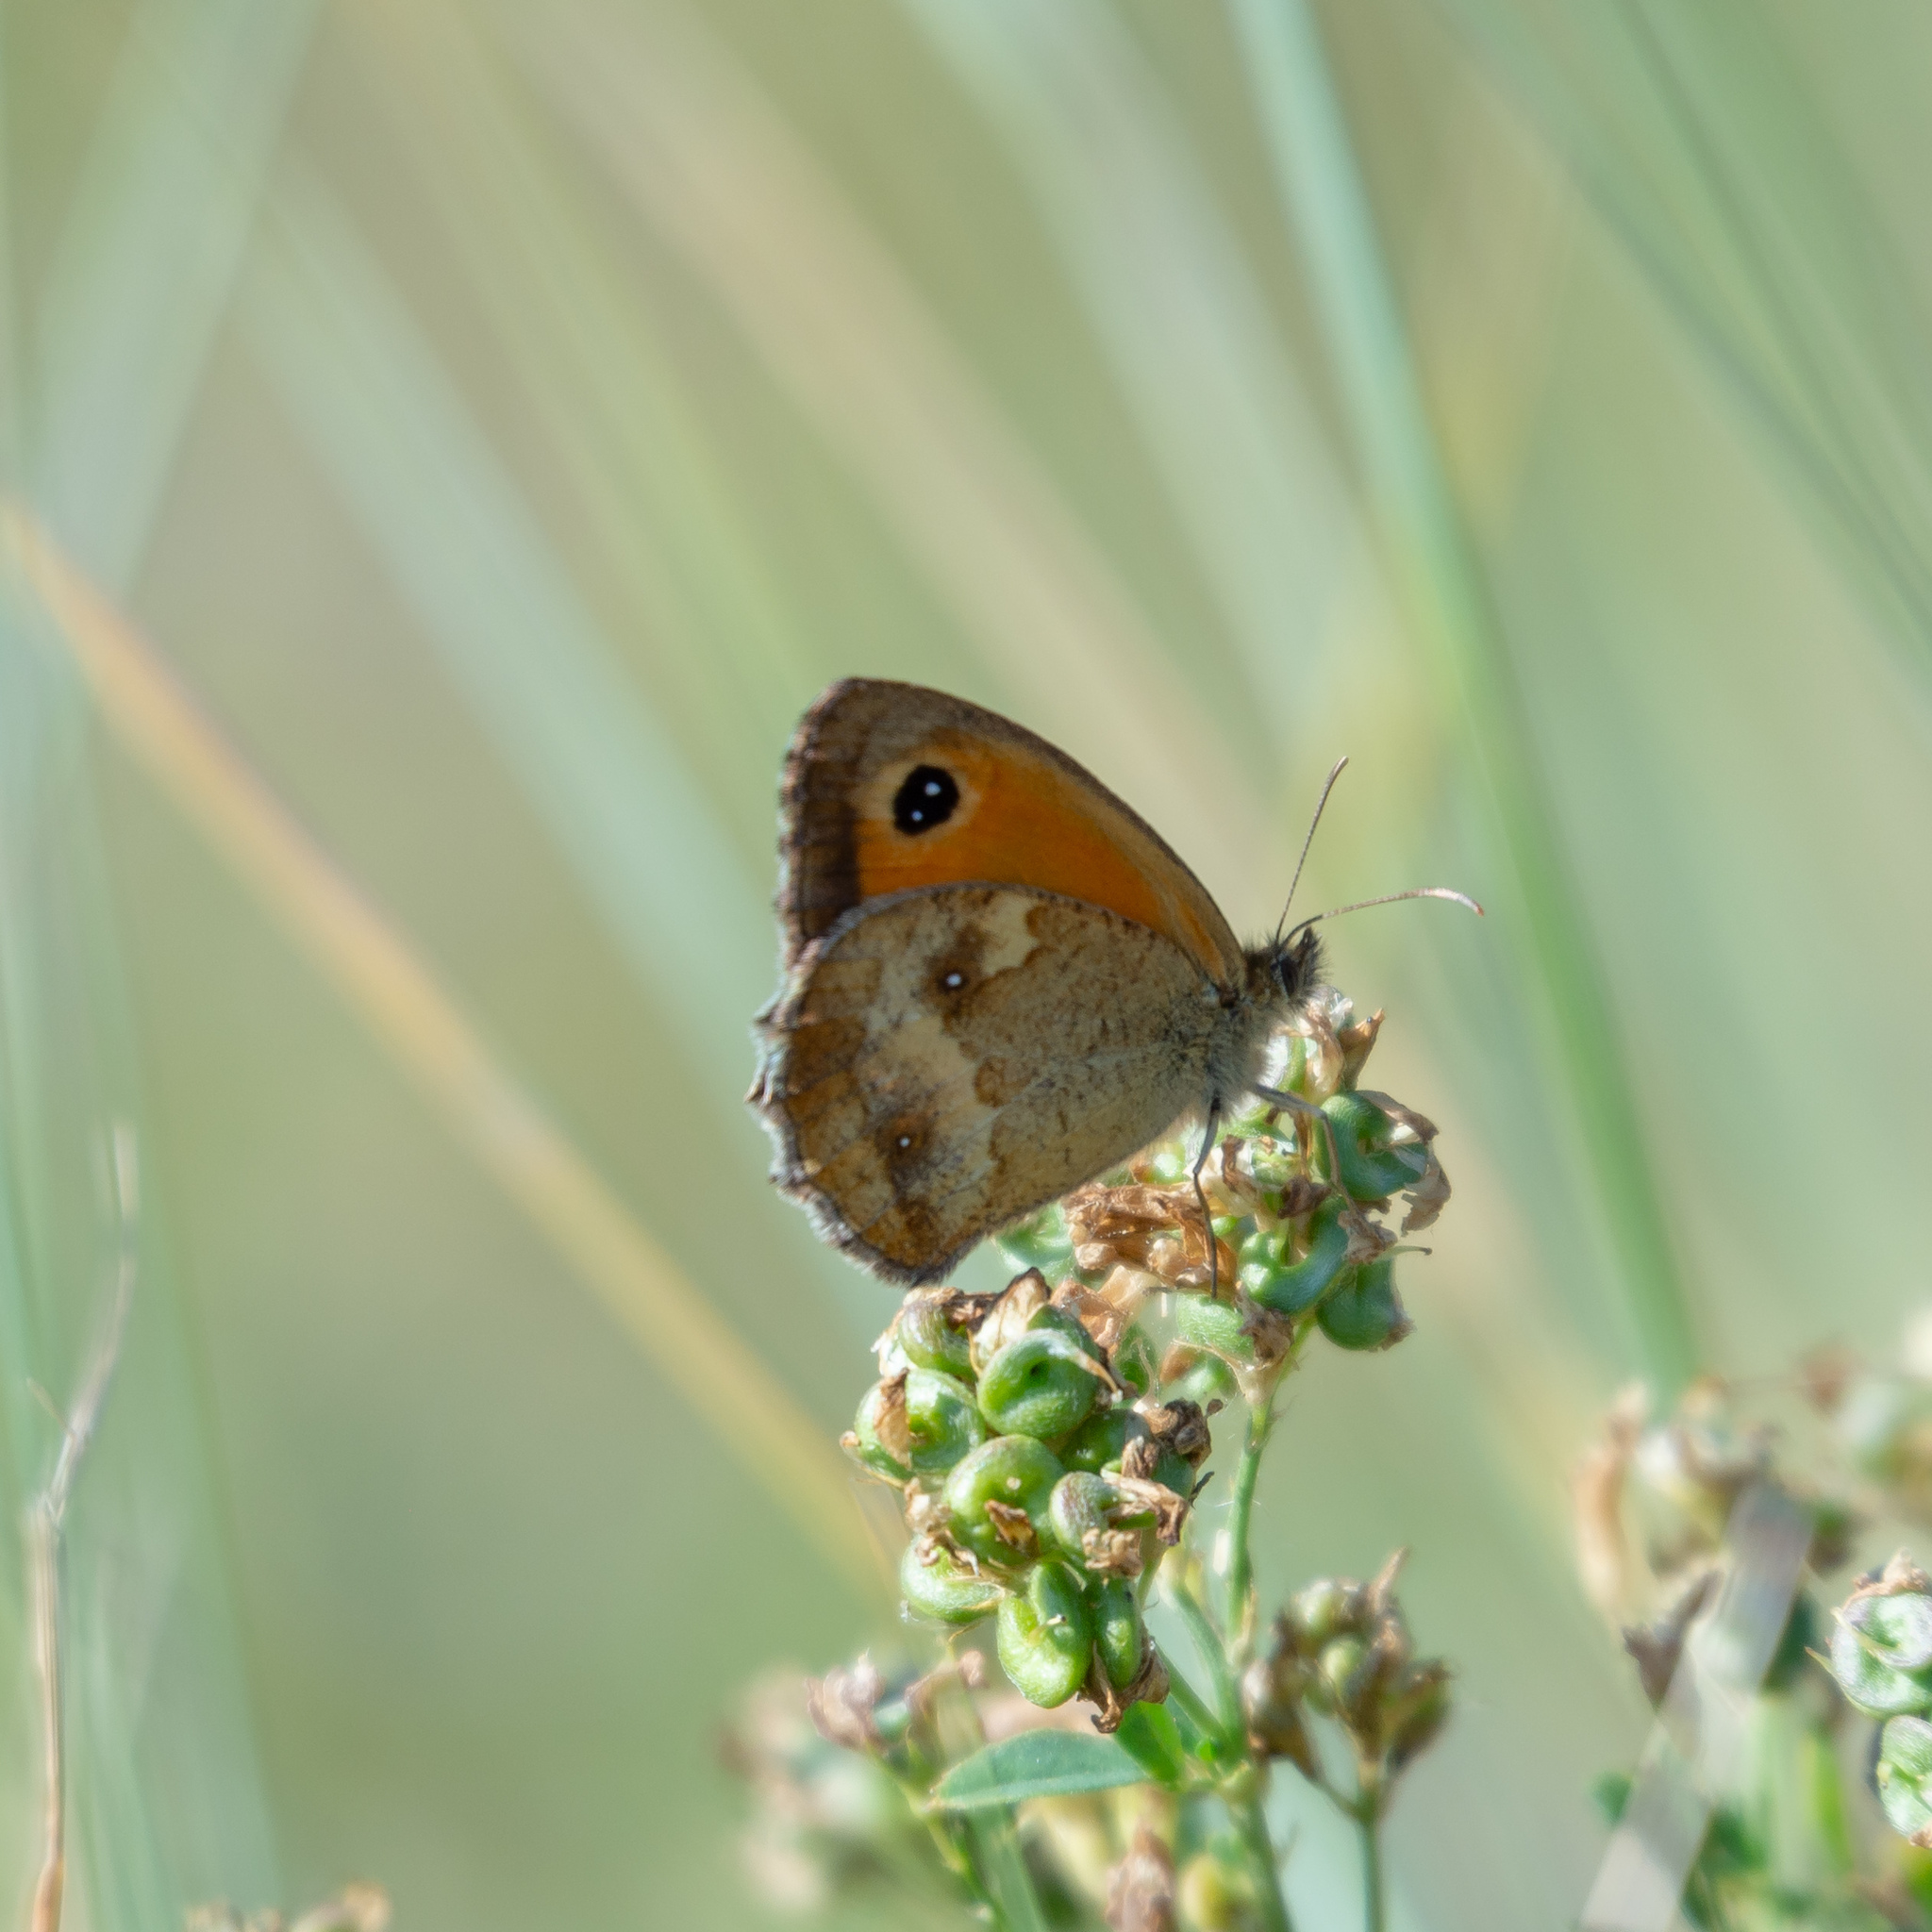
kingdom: Animalia
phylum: Arthropoda
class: Insecta
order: Lepidoptera
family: Nymphalidae
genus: Pyronia
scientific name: Pyronia tithonus
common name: Gatekeeper
